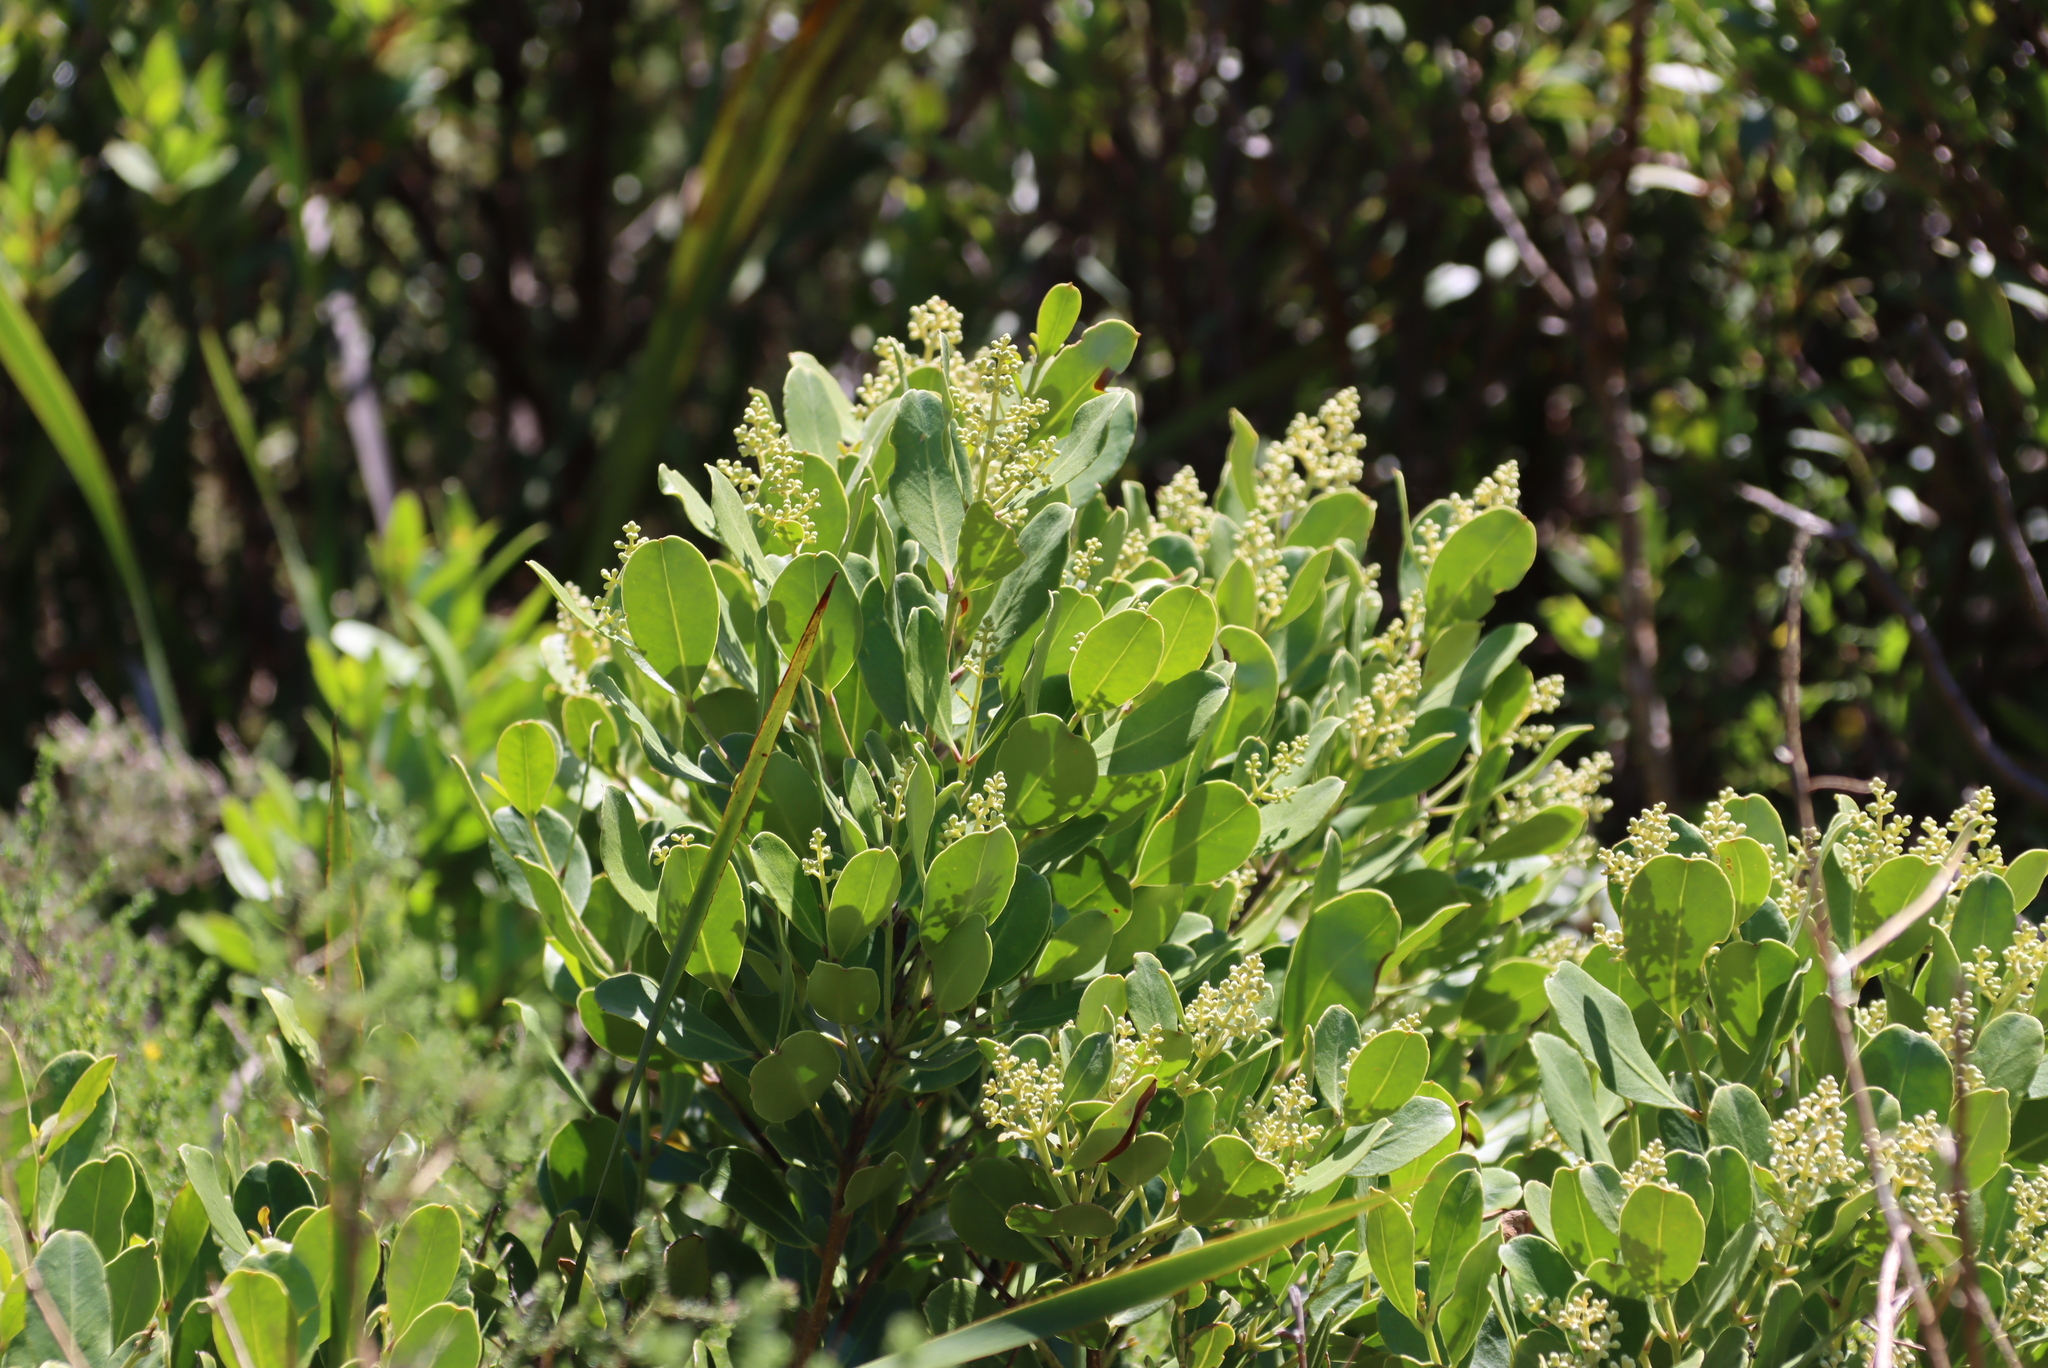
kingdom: Plantae
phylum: Tracheophyta
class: Magnoliopsida
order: Lamiales
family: Oleaceae
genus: Olea
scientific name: Olea capensis
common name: Black ironwood
